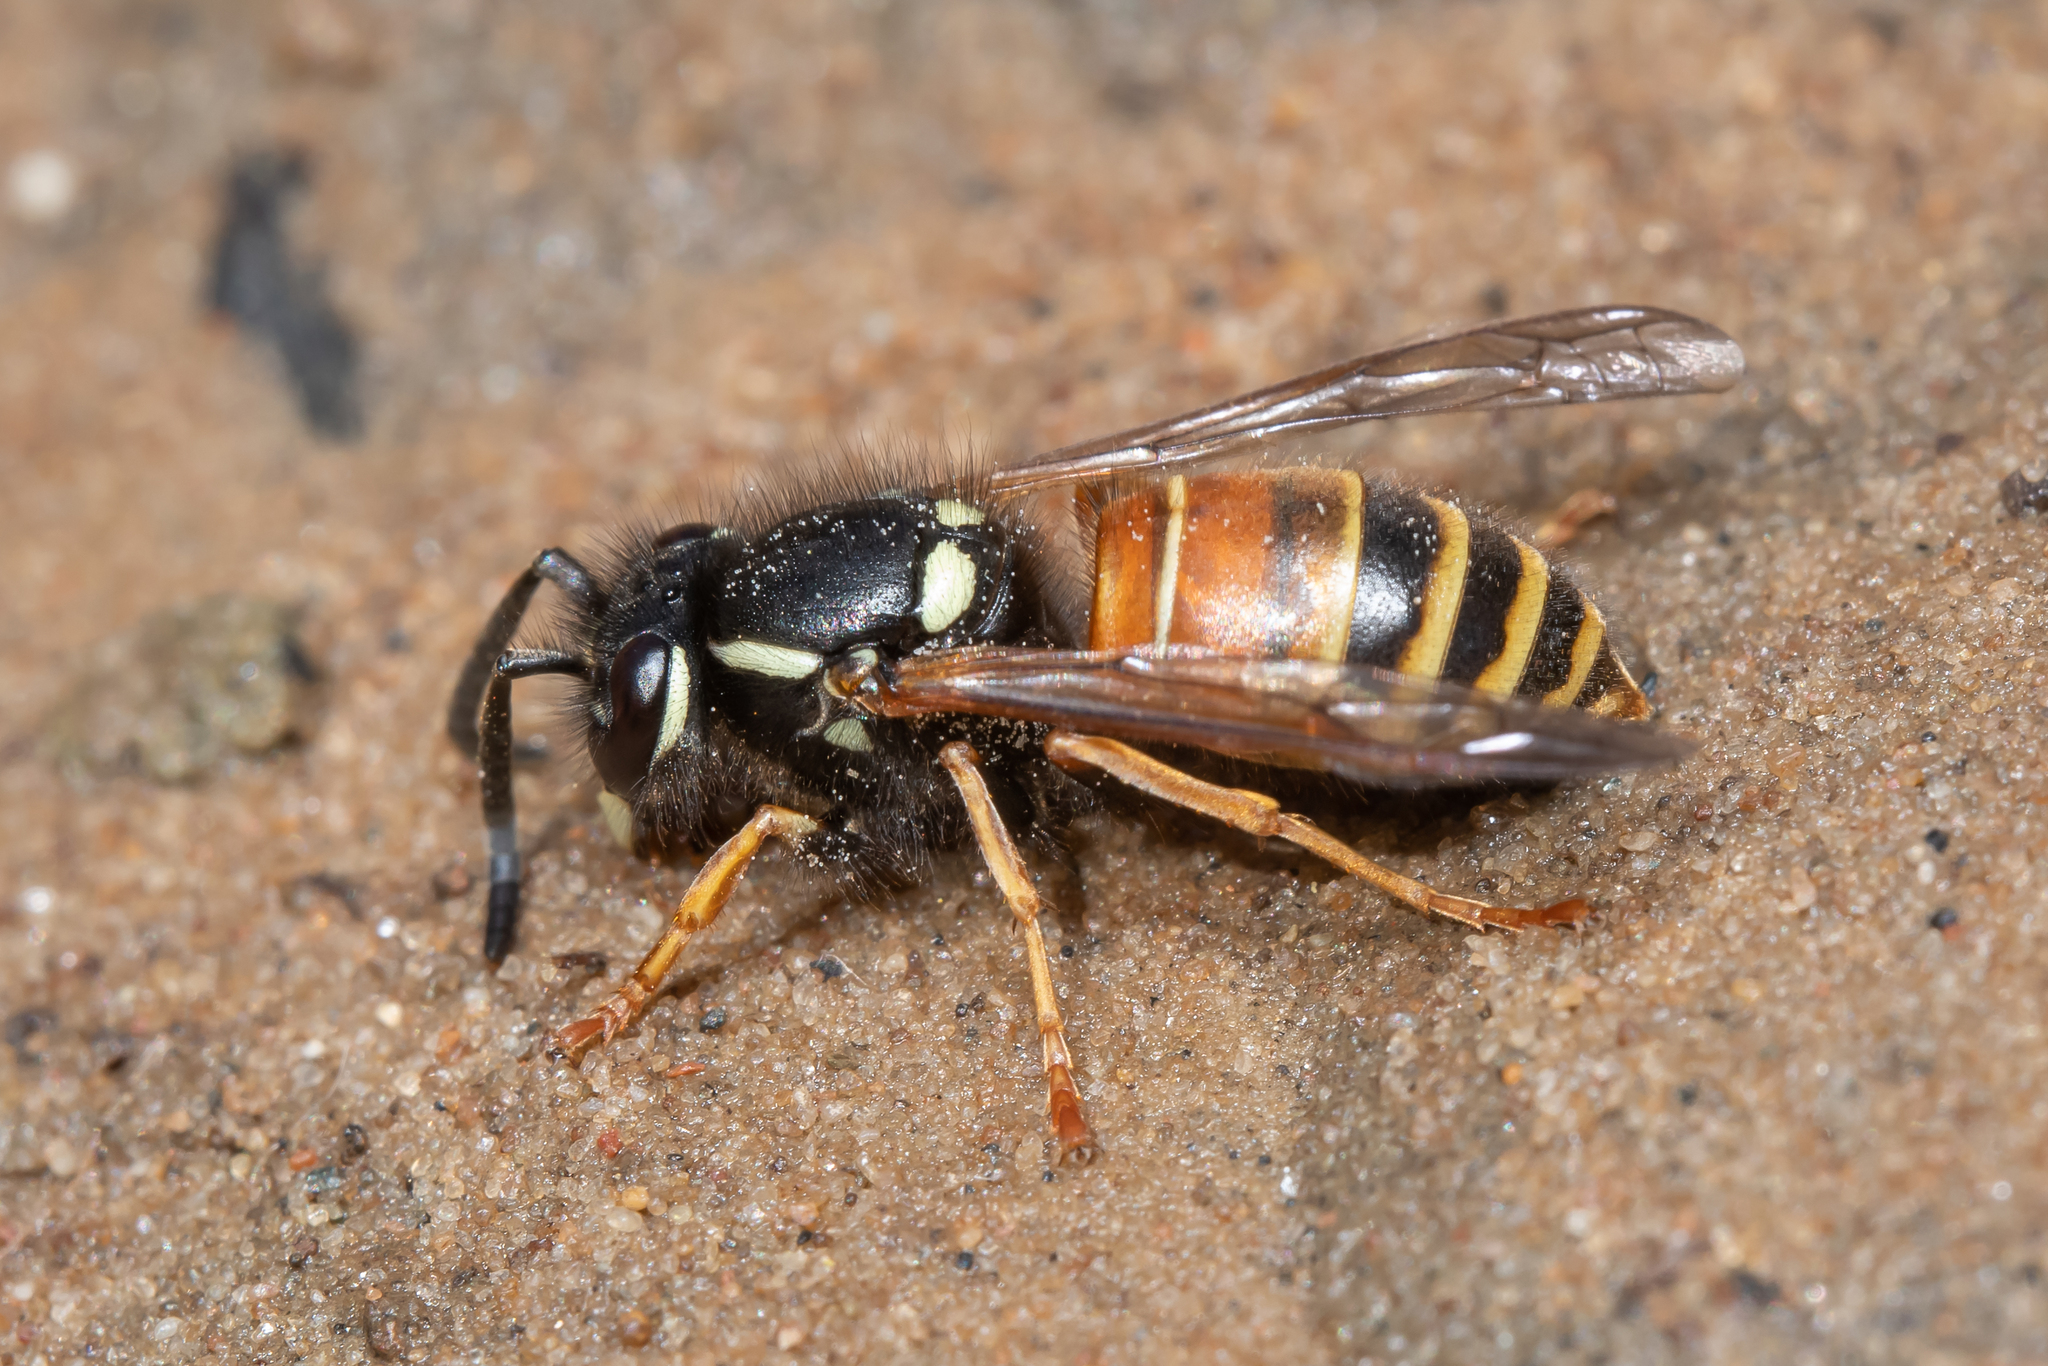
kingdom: Animalia
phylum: Arthropoda
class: Insecta
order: Hymenoptera
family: Vespidae
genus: Vespula
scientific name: Vespula rufa
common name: Red wasp
